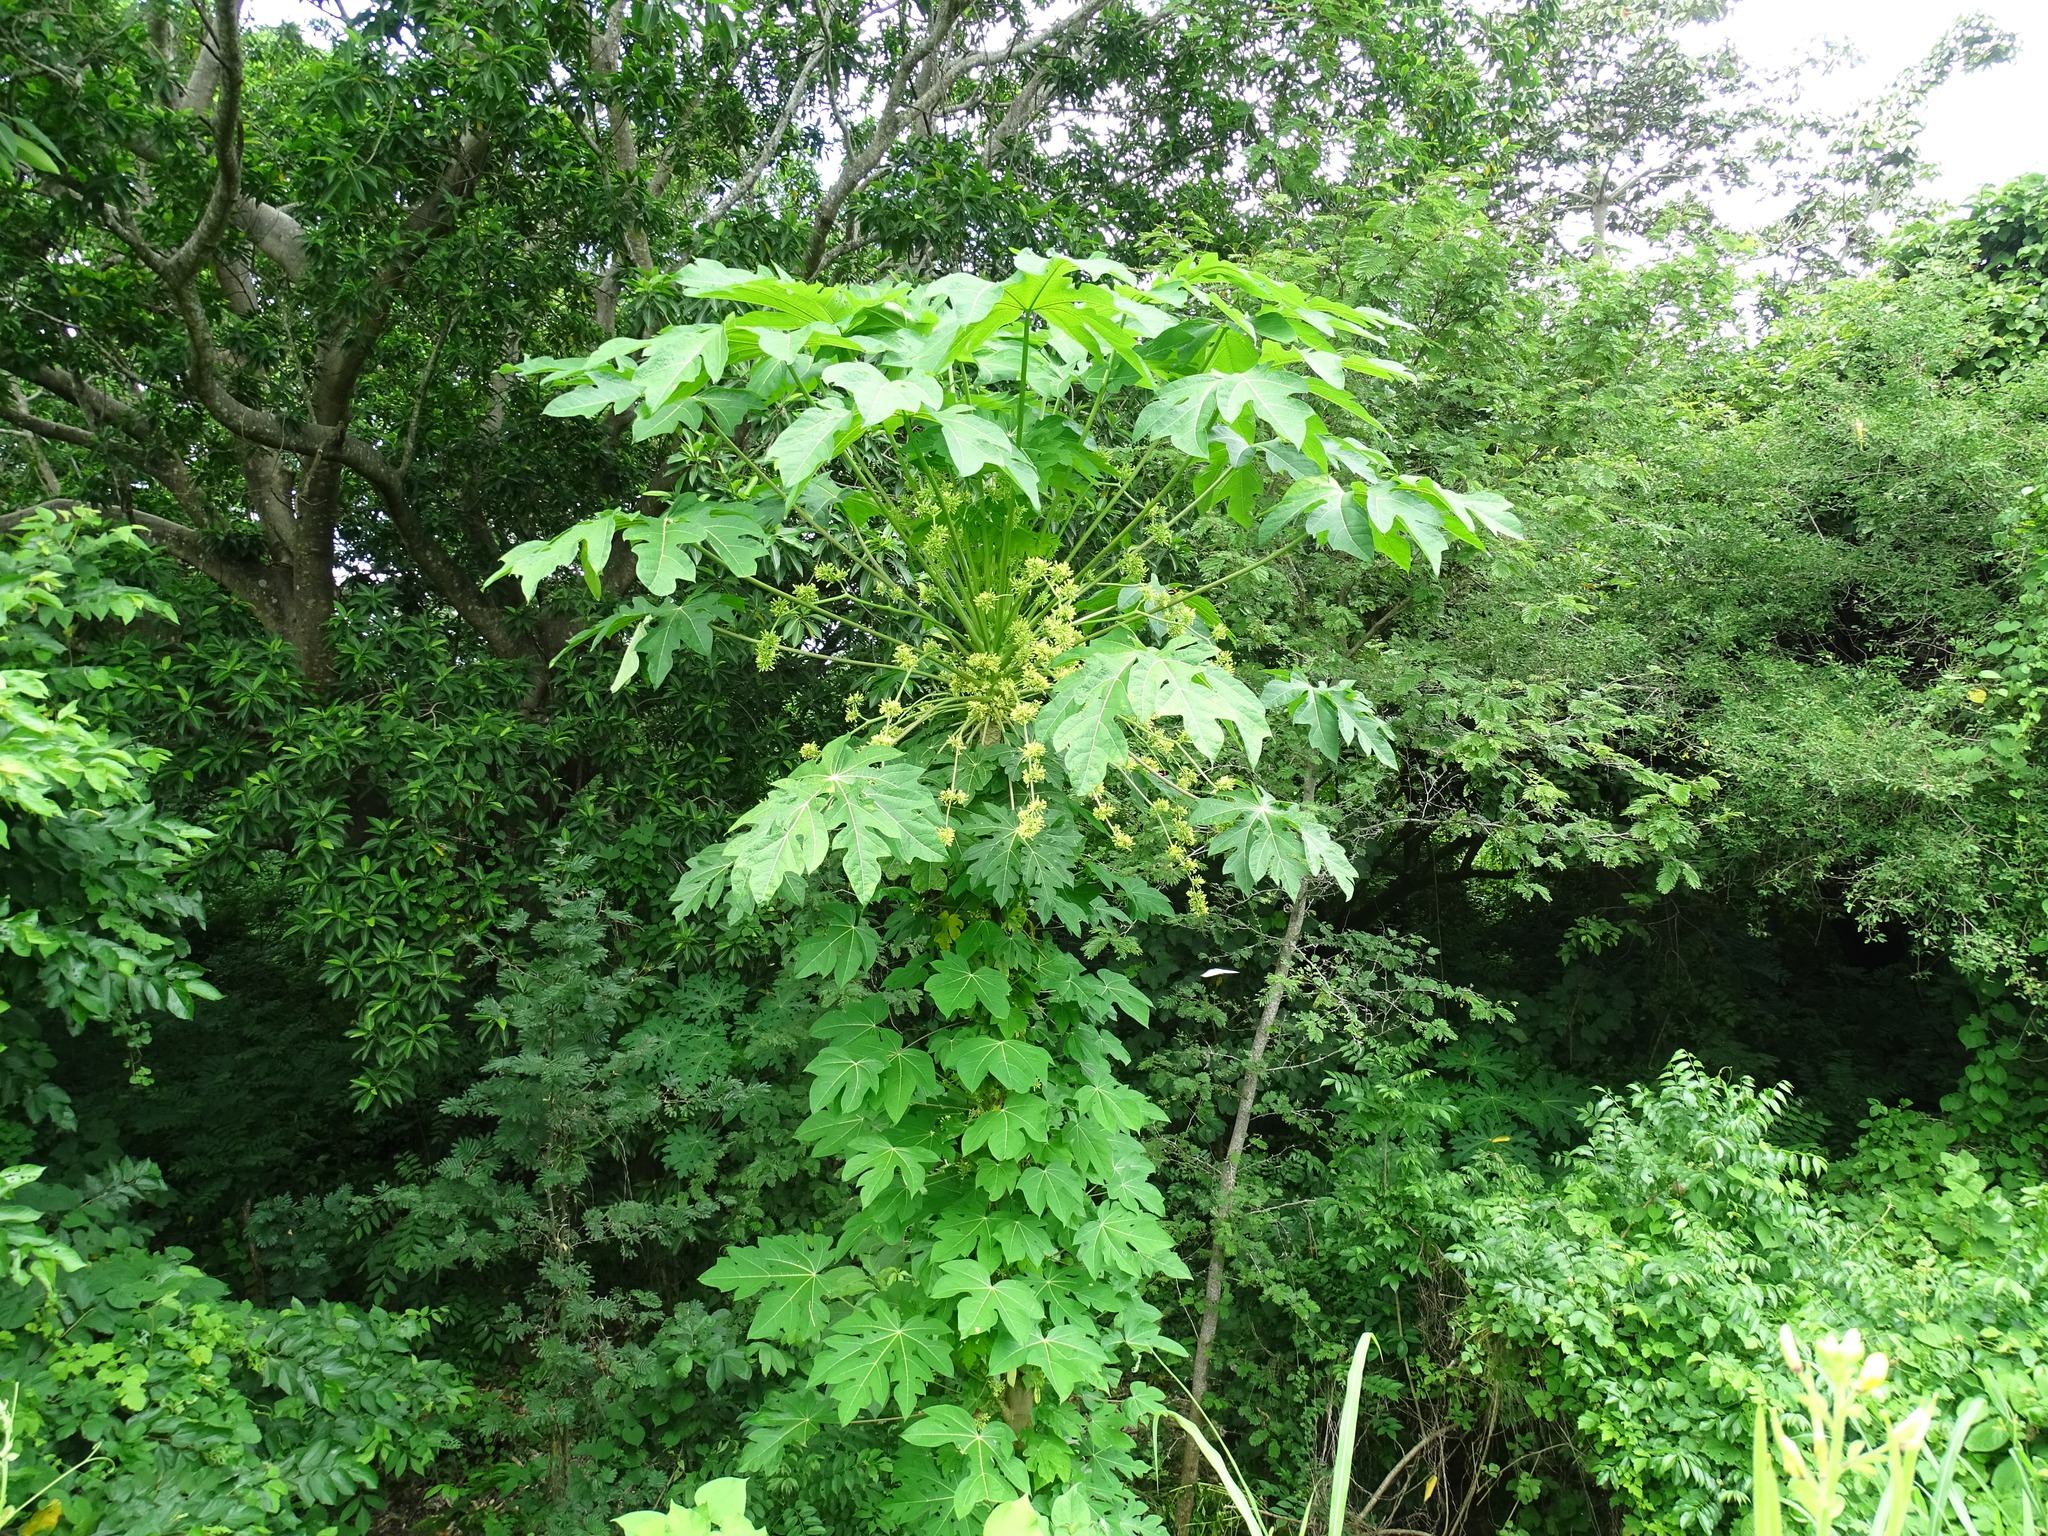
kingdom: Plantae
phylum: Tracheophyta
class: Magnoliopsida
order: Brassicales
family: Caricaceae
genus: Vasconcellea
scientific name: Vasconcellea cauliflora
